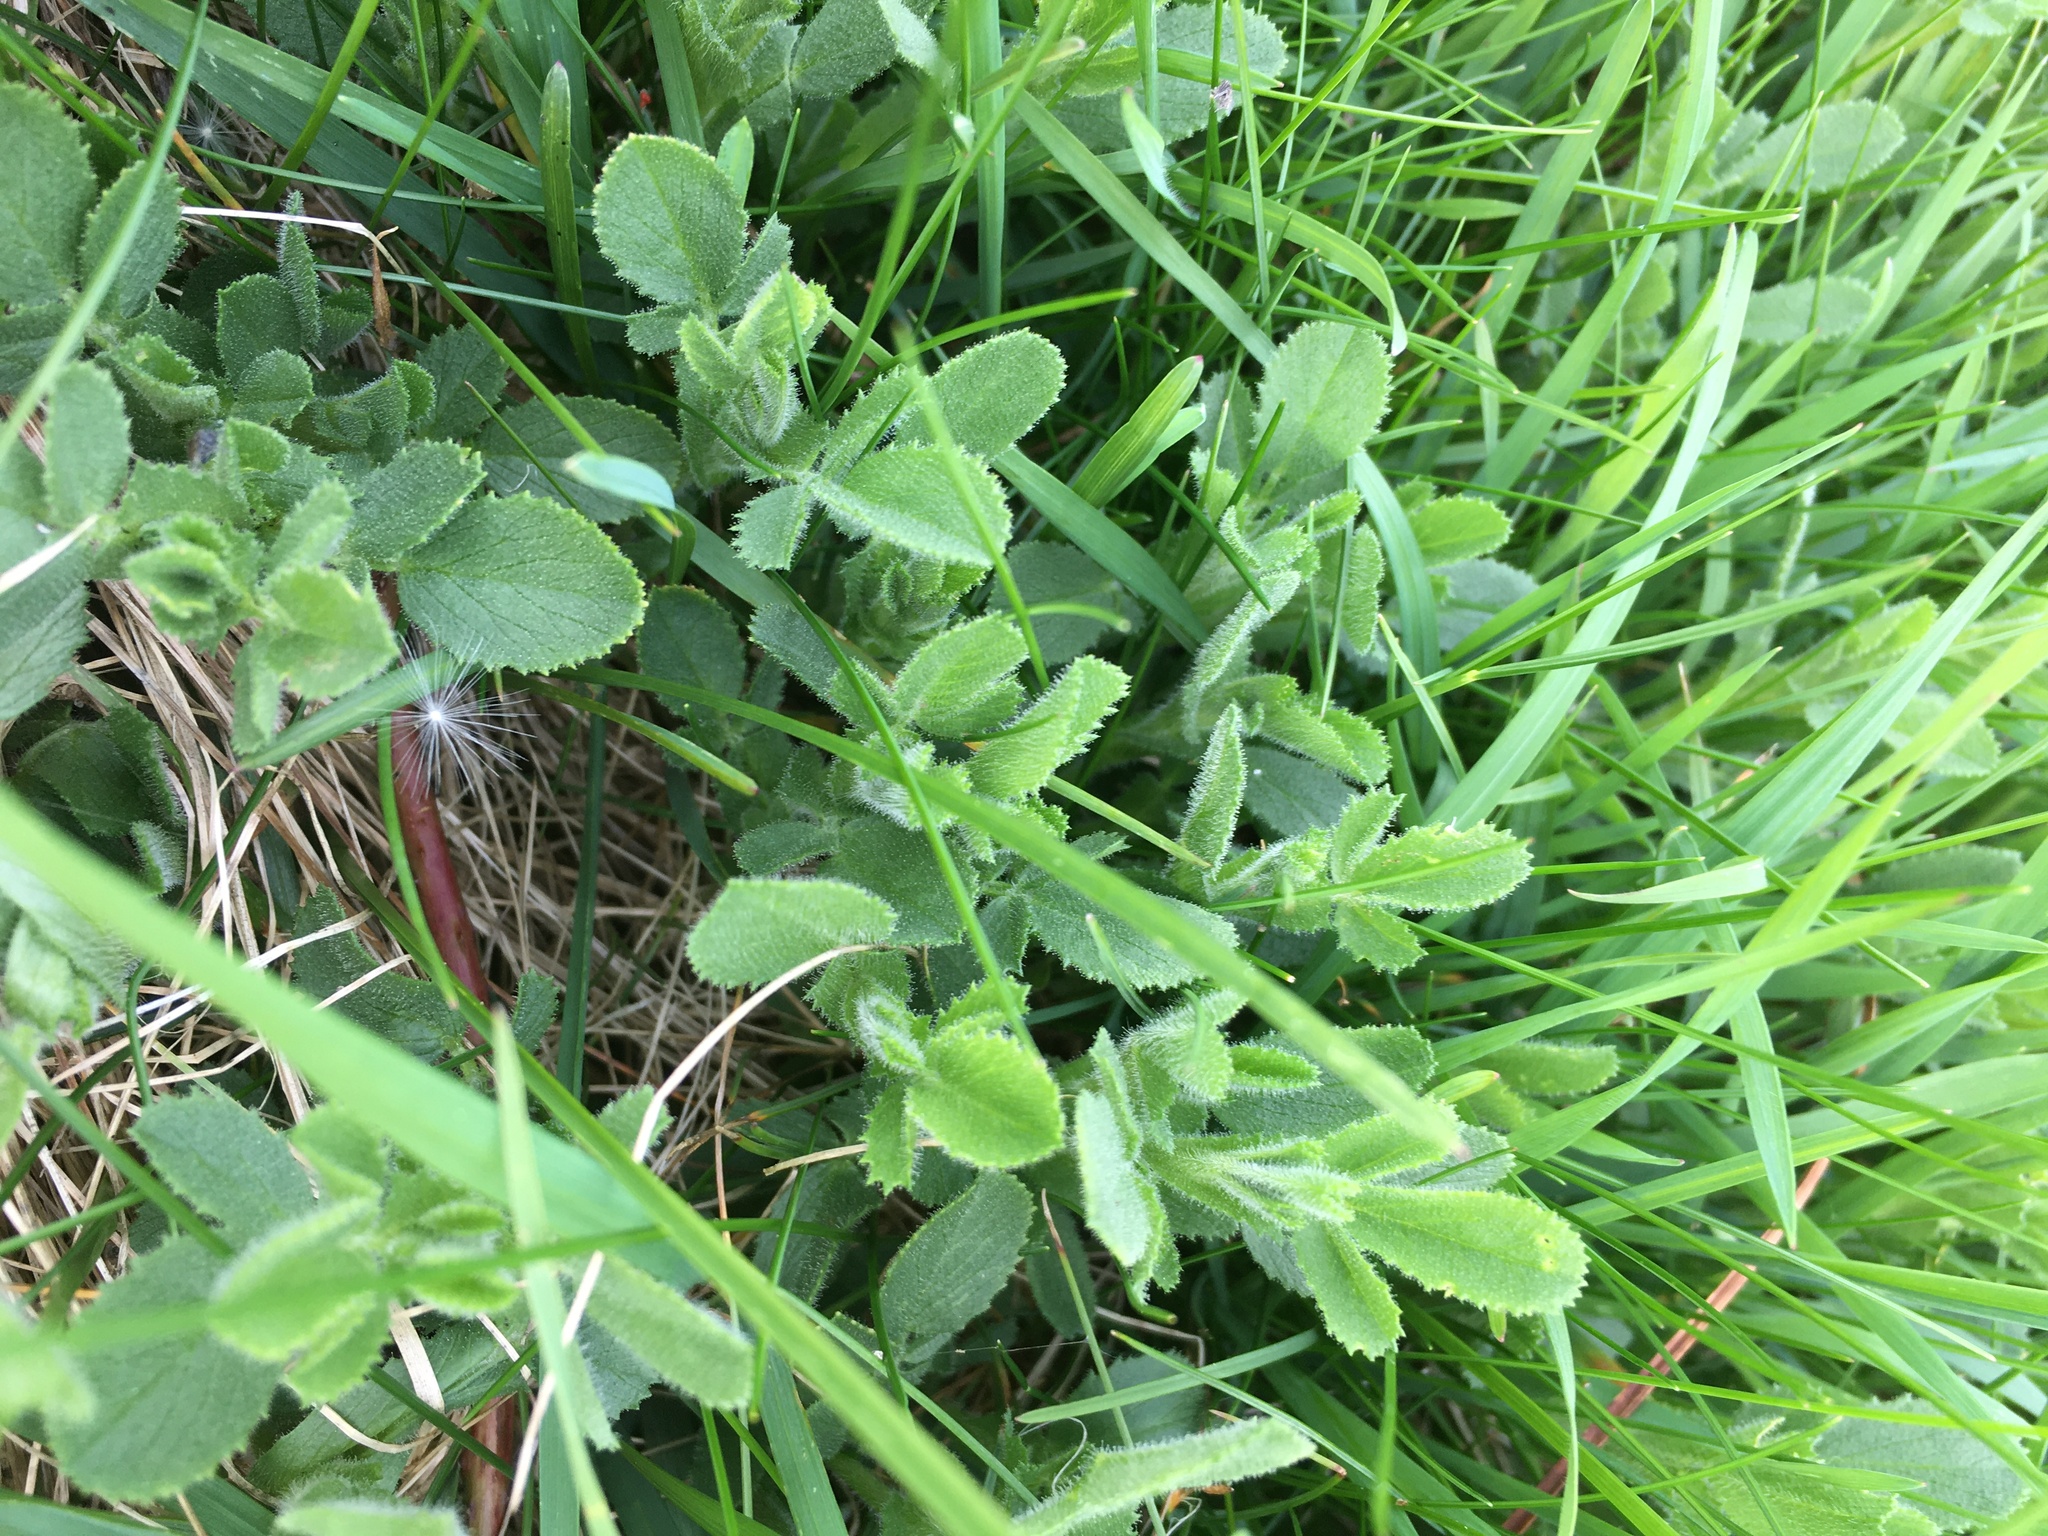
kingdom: Plantae
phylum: Tracheophyta
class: Magnoliopsida
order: Fabales
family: Fabaceae
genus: Ononis
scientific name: Ononis spinosa
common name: Spiny restharrow
